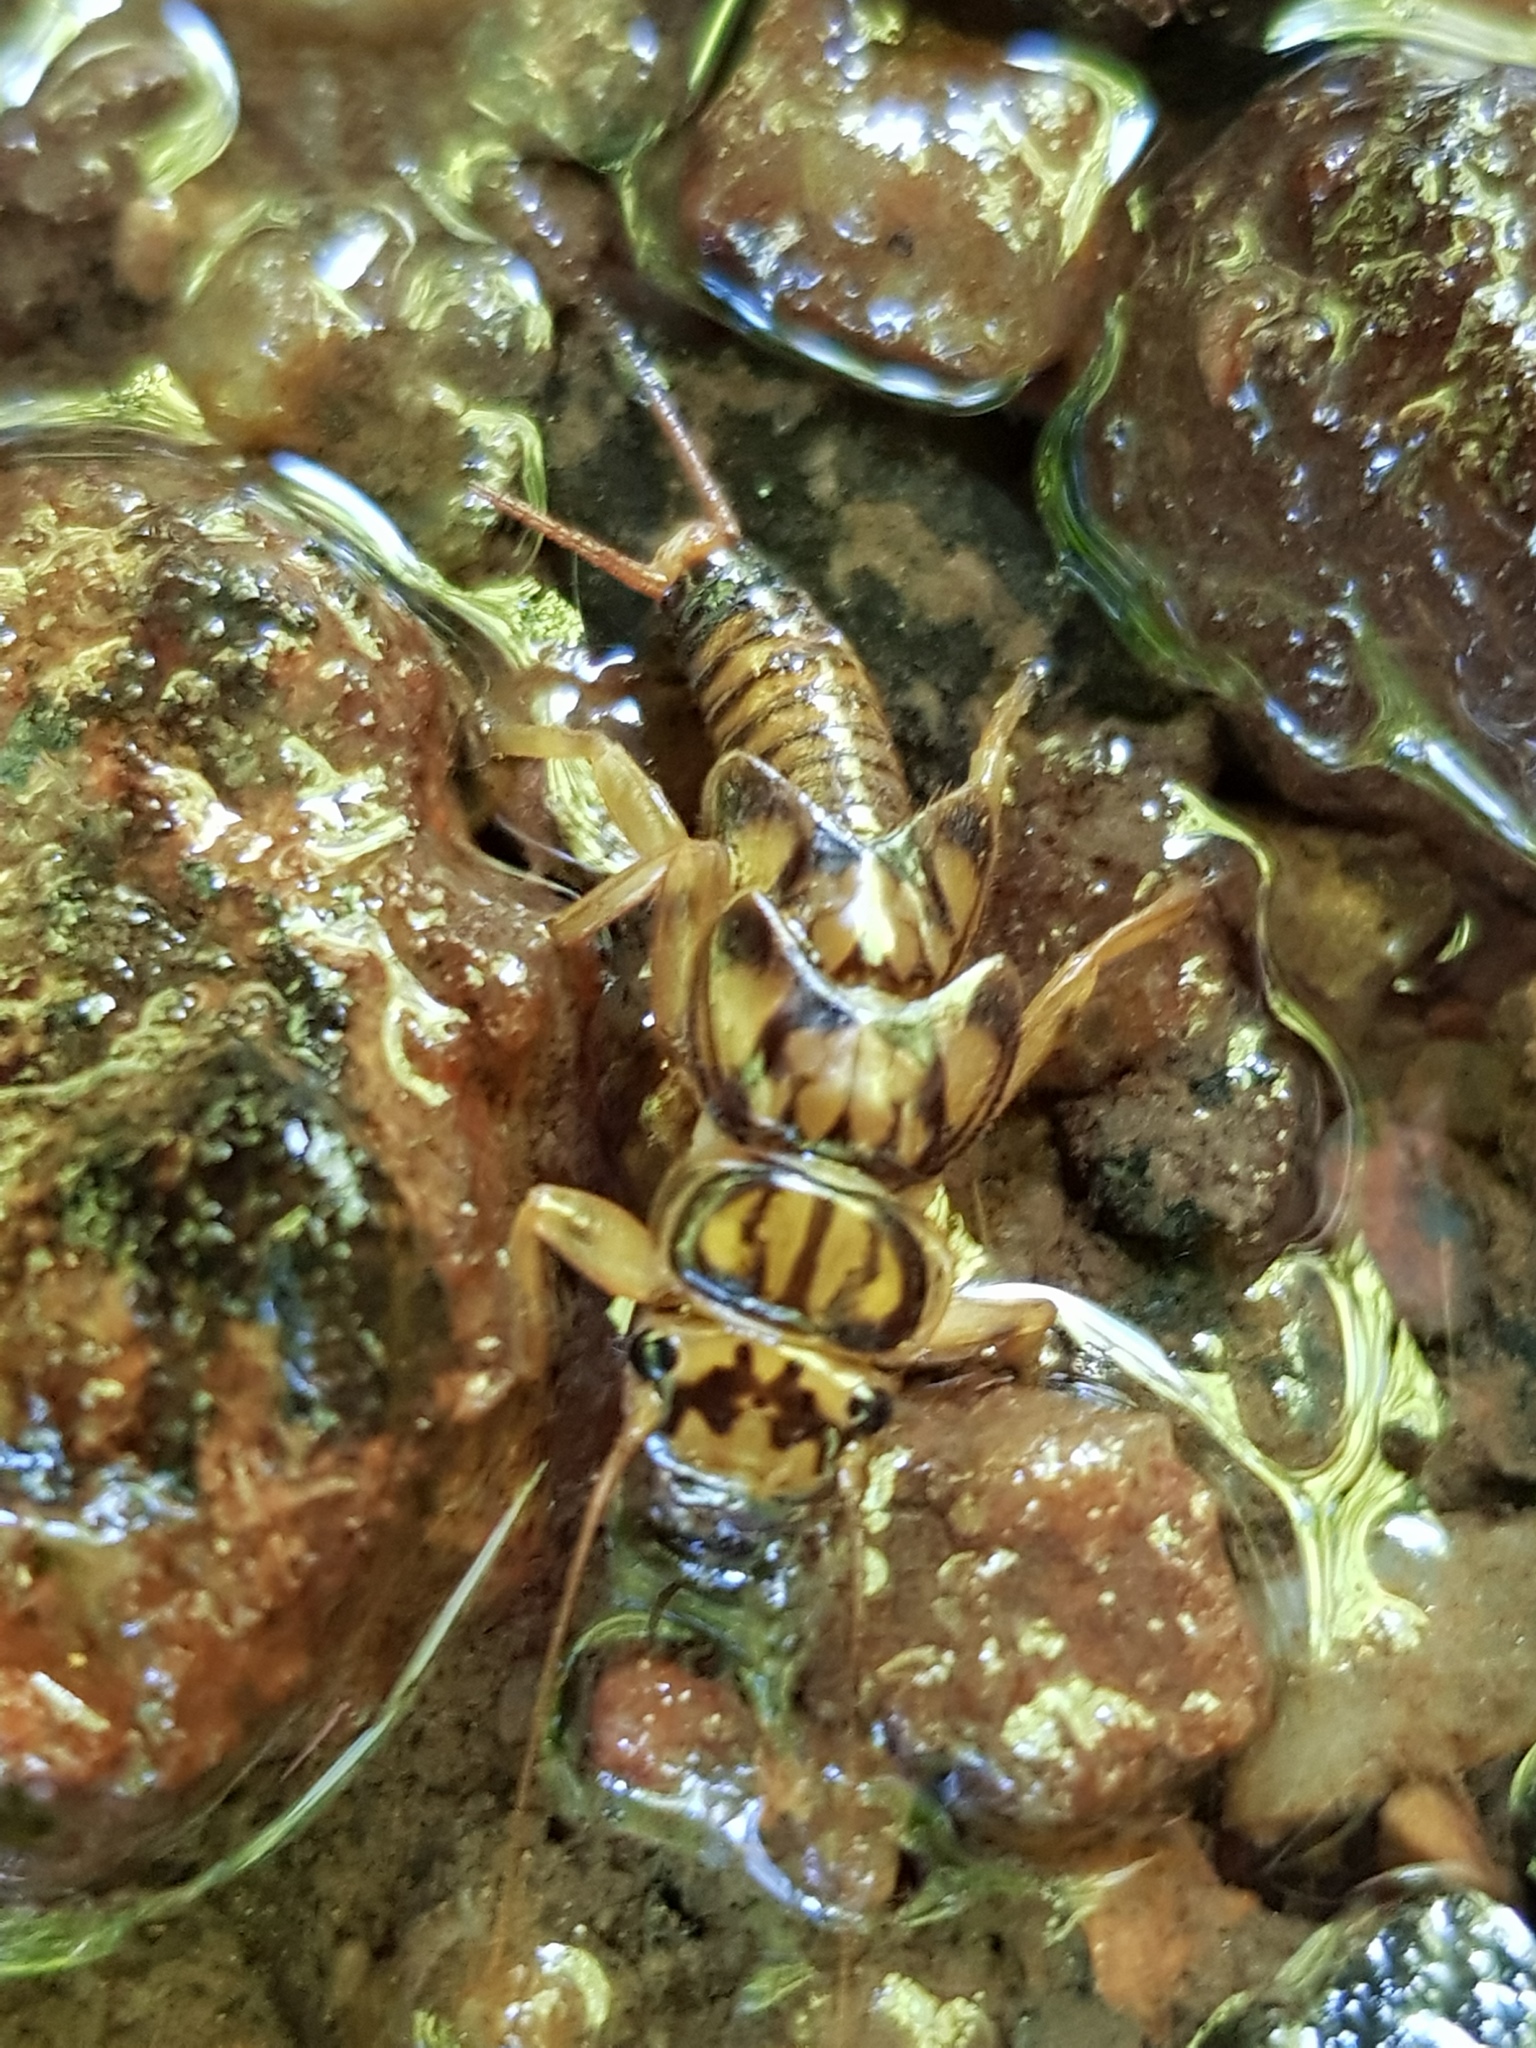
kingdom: Animalia
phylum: Arthropoda
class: Insecta
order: Plecoptera
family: Perlidae
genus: Eccoptura
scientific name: Eccoptura xanthenes
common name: Yellow stone
